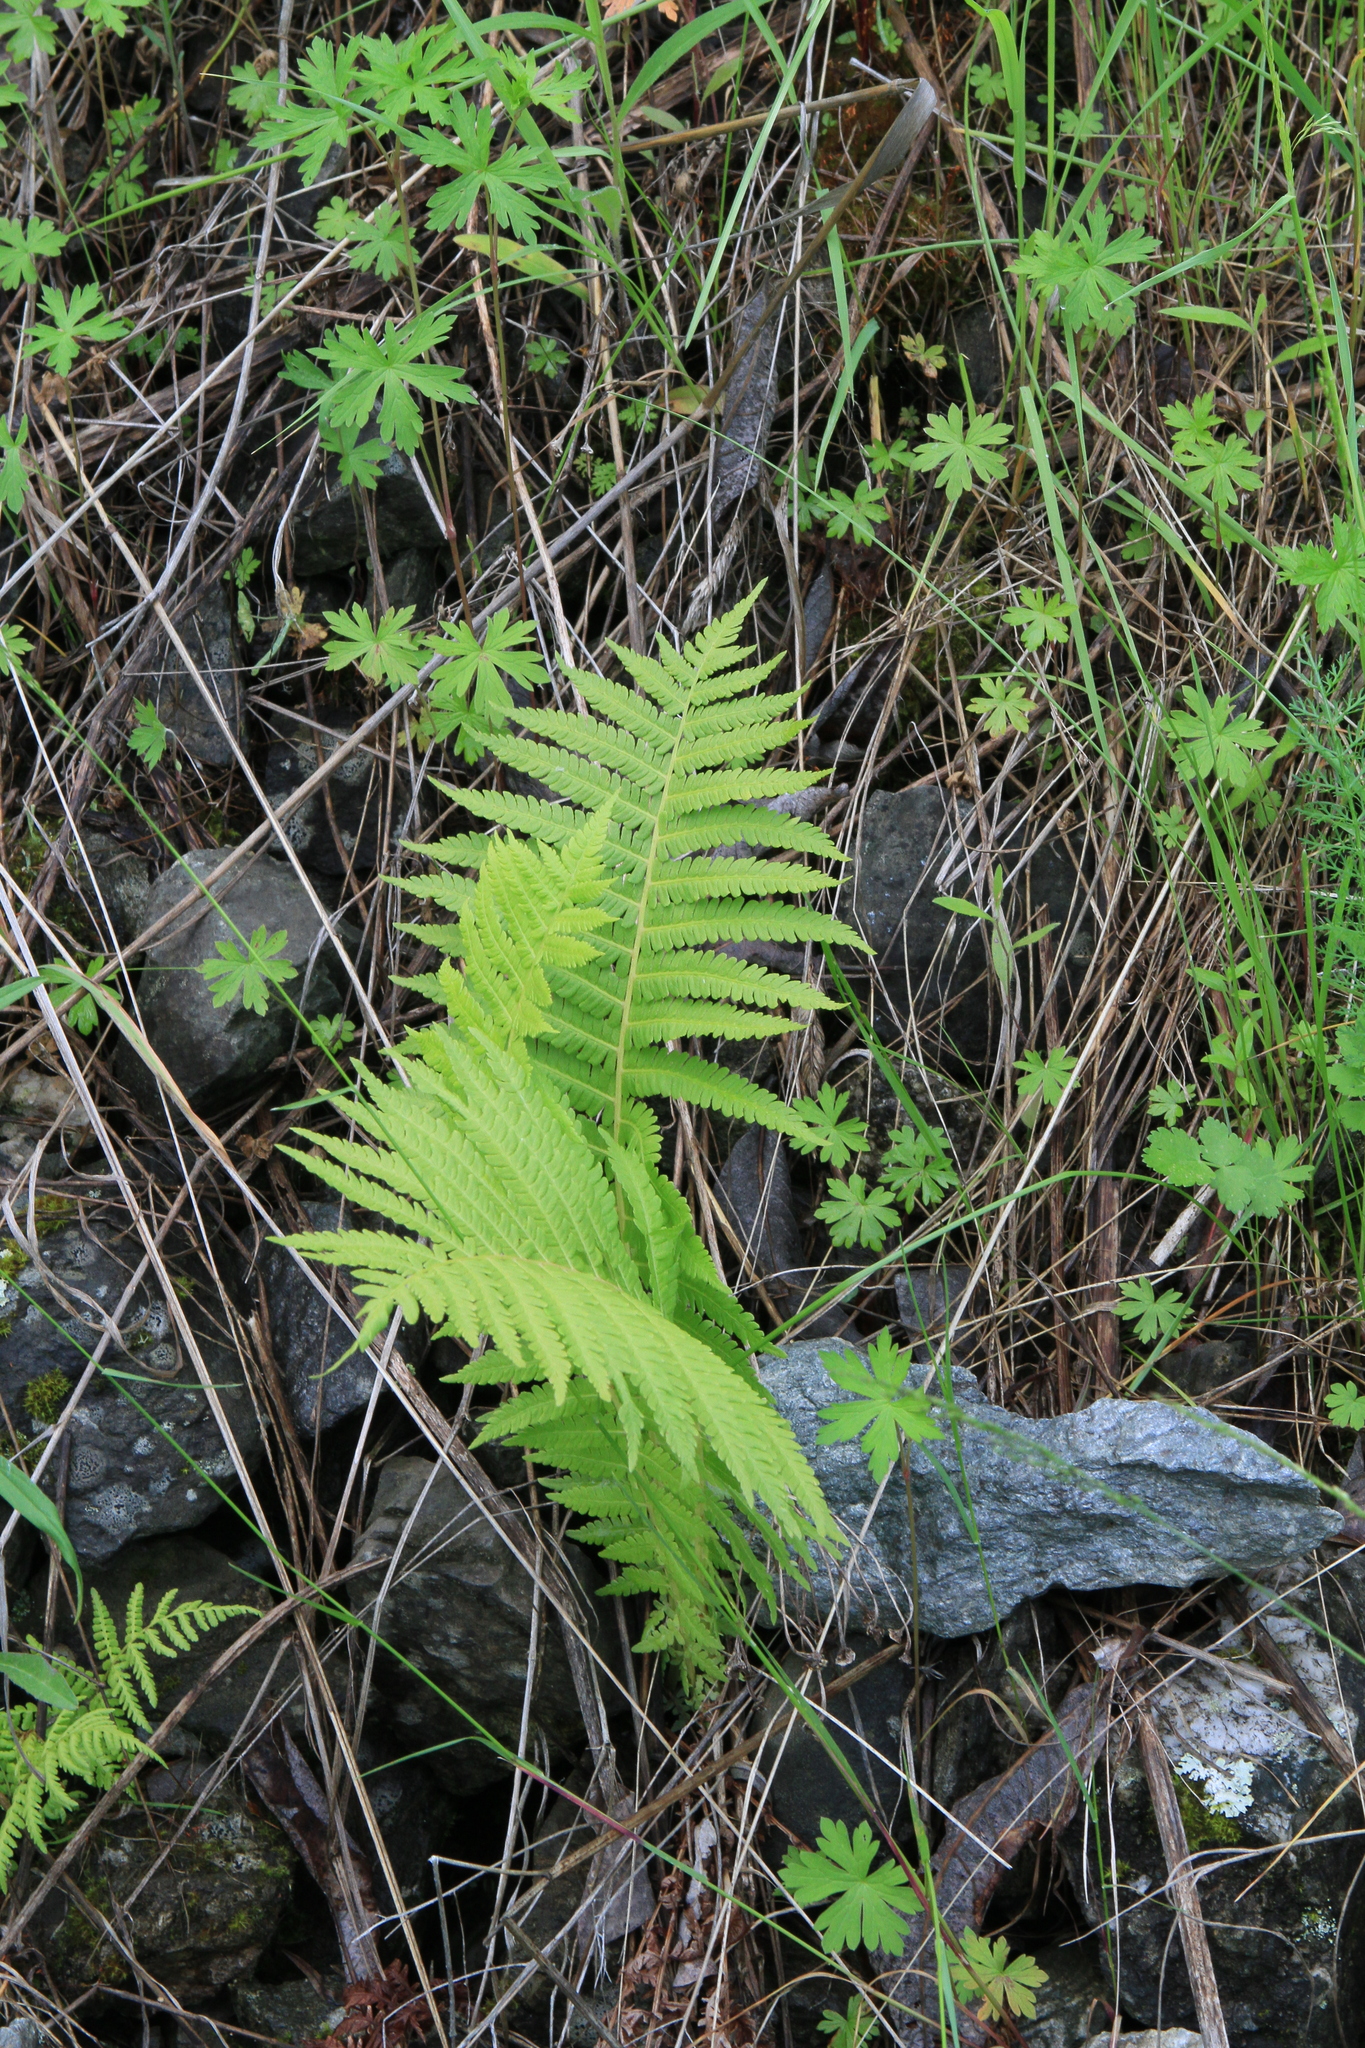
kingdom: Plantae
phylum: Tracheophyta
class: Polypodiopsida
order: Polypodiales
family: Onocleaceae
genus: Matteuccia
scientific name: Matteuccia struthiopteris
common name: Ostrich fern
